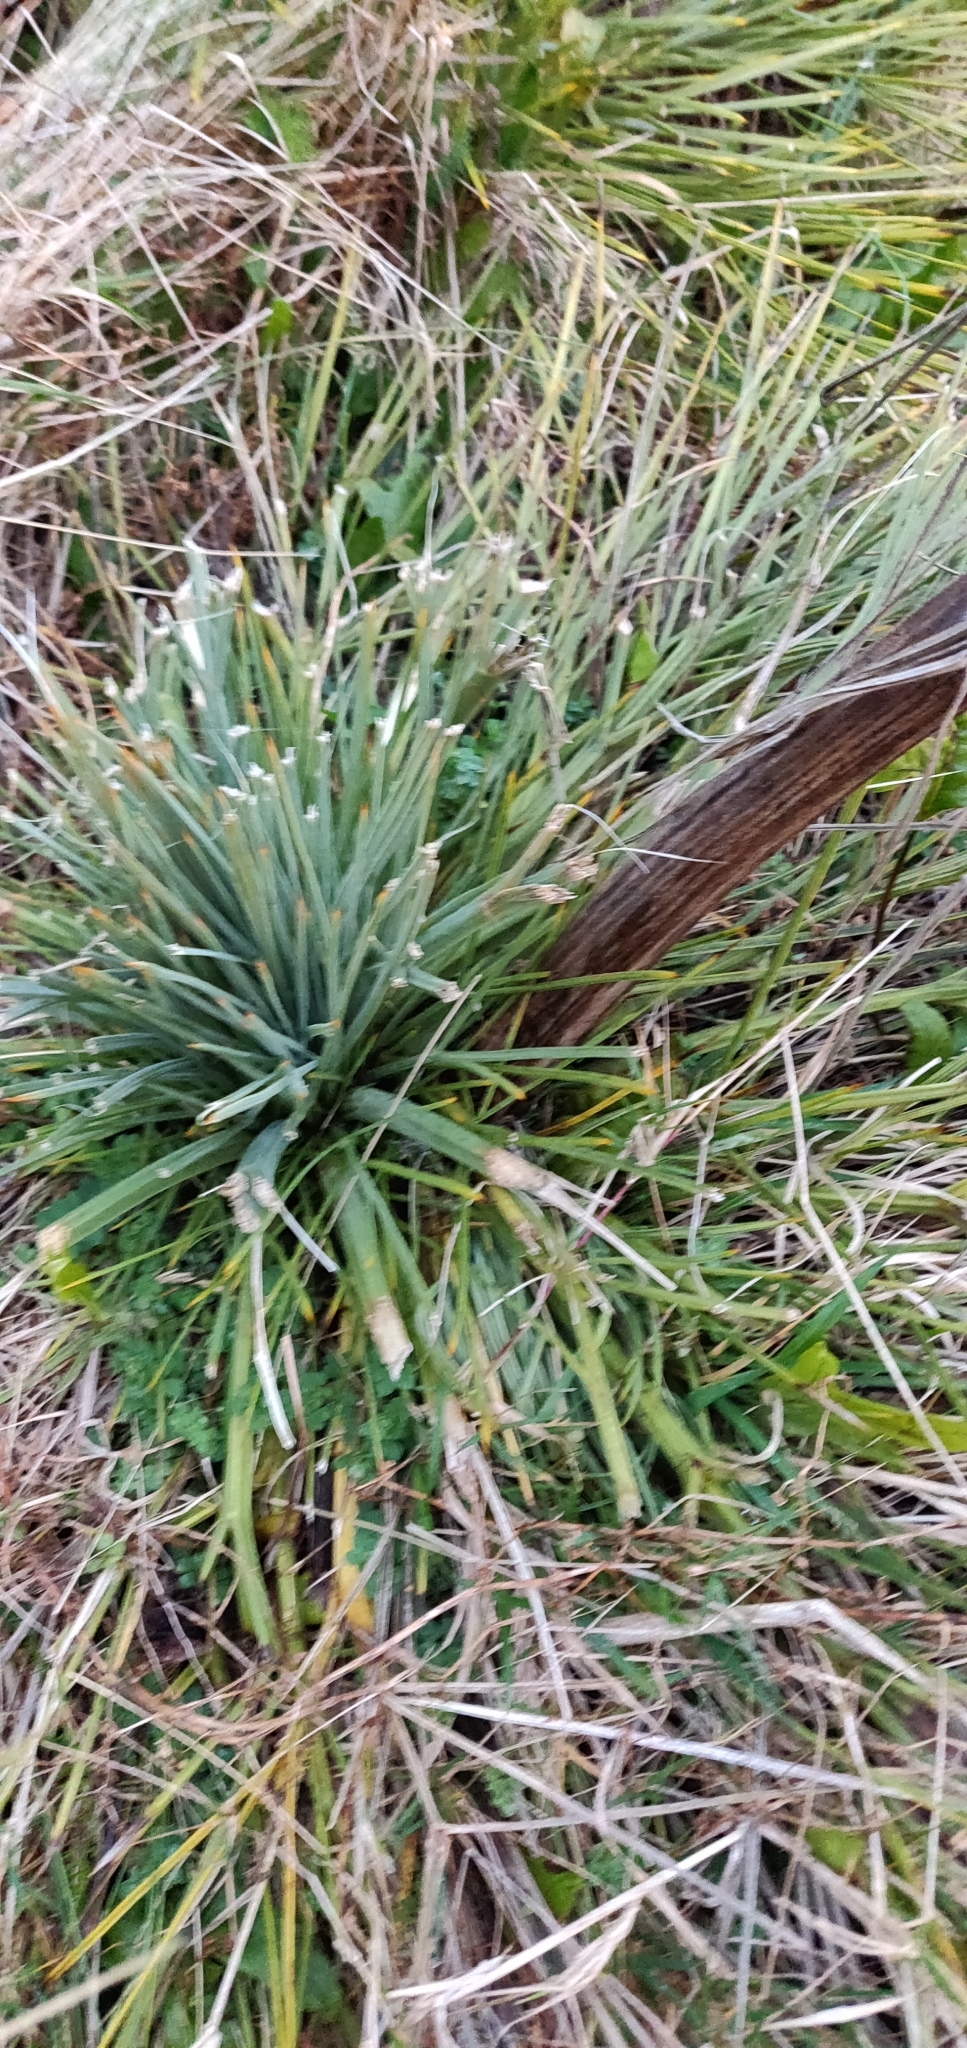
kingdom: Plantae
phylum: Tracheophyta
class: Magnoliopsida
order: Apiales
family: Apiaceae
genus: Aciphylla
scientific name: Aciphylla squarrosa
